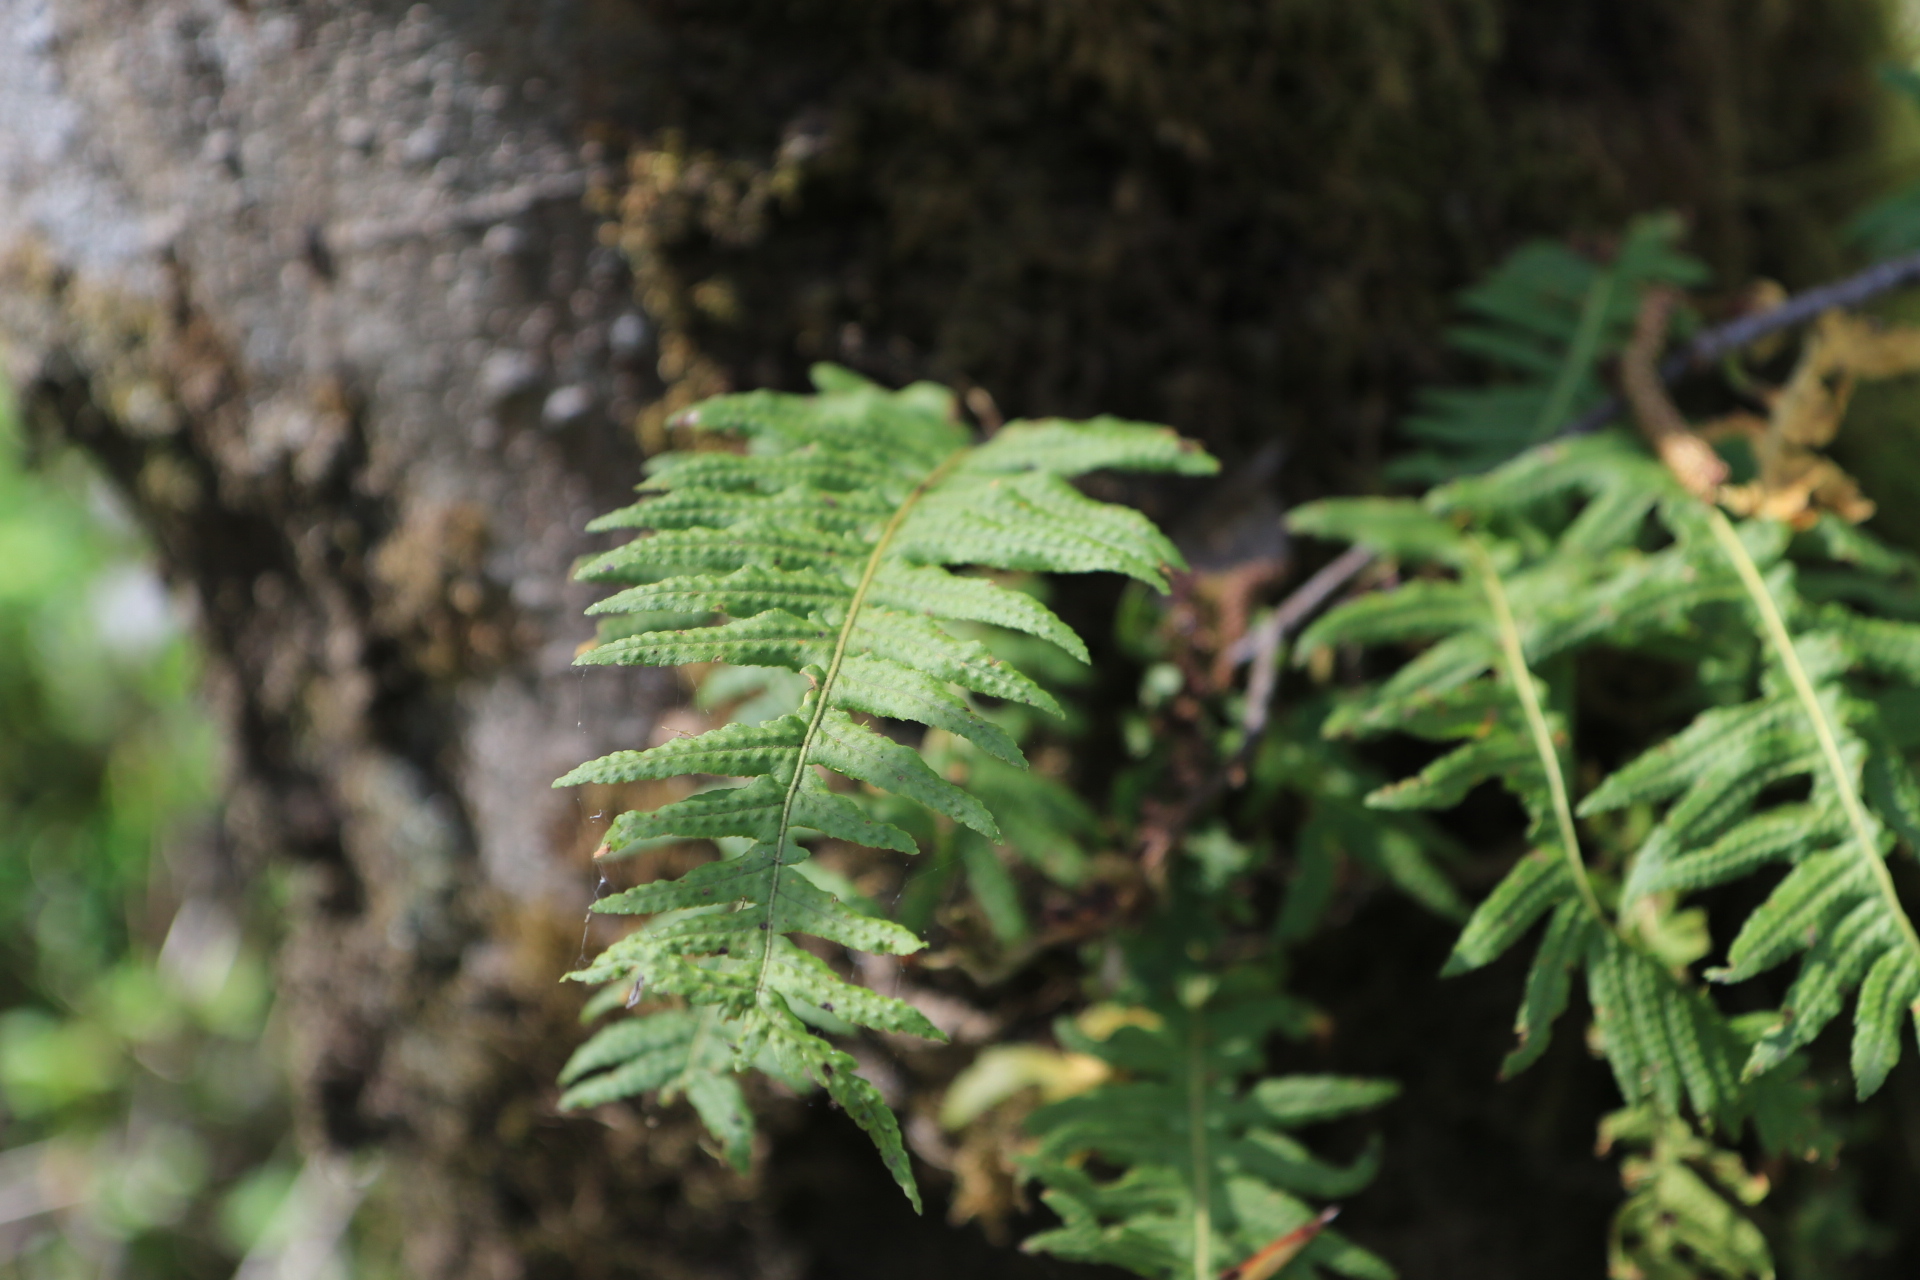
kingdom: Plantae
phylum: Tracheophyta
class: Polypodiopsida
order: Polypodiales
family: Polypodiaceae
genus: Polypodium
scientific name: Polypodium glycyrrhiza
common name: Licorice fern
